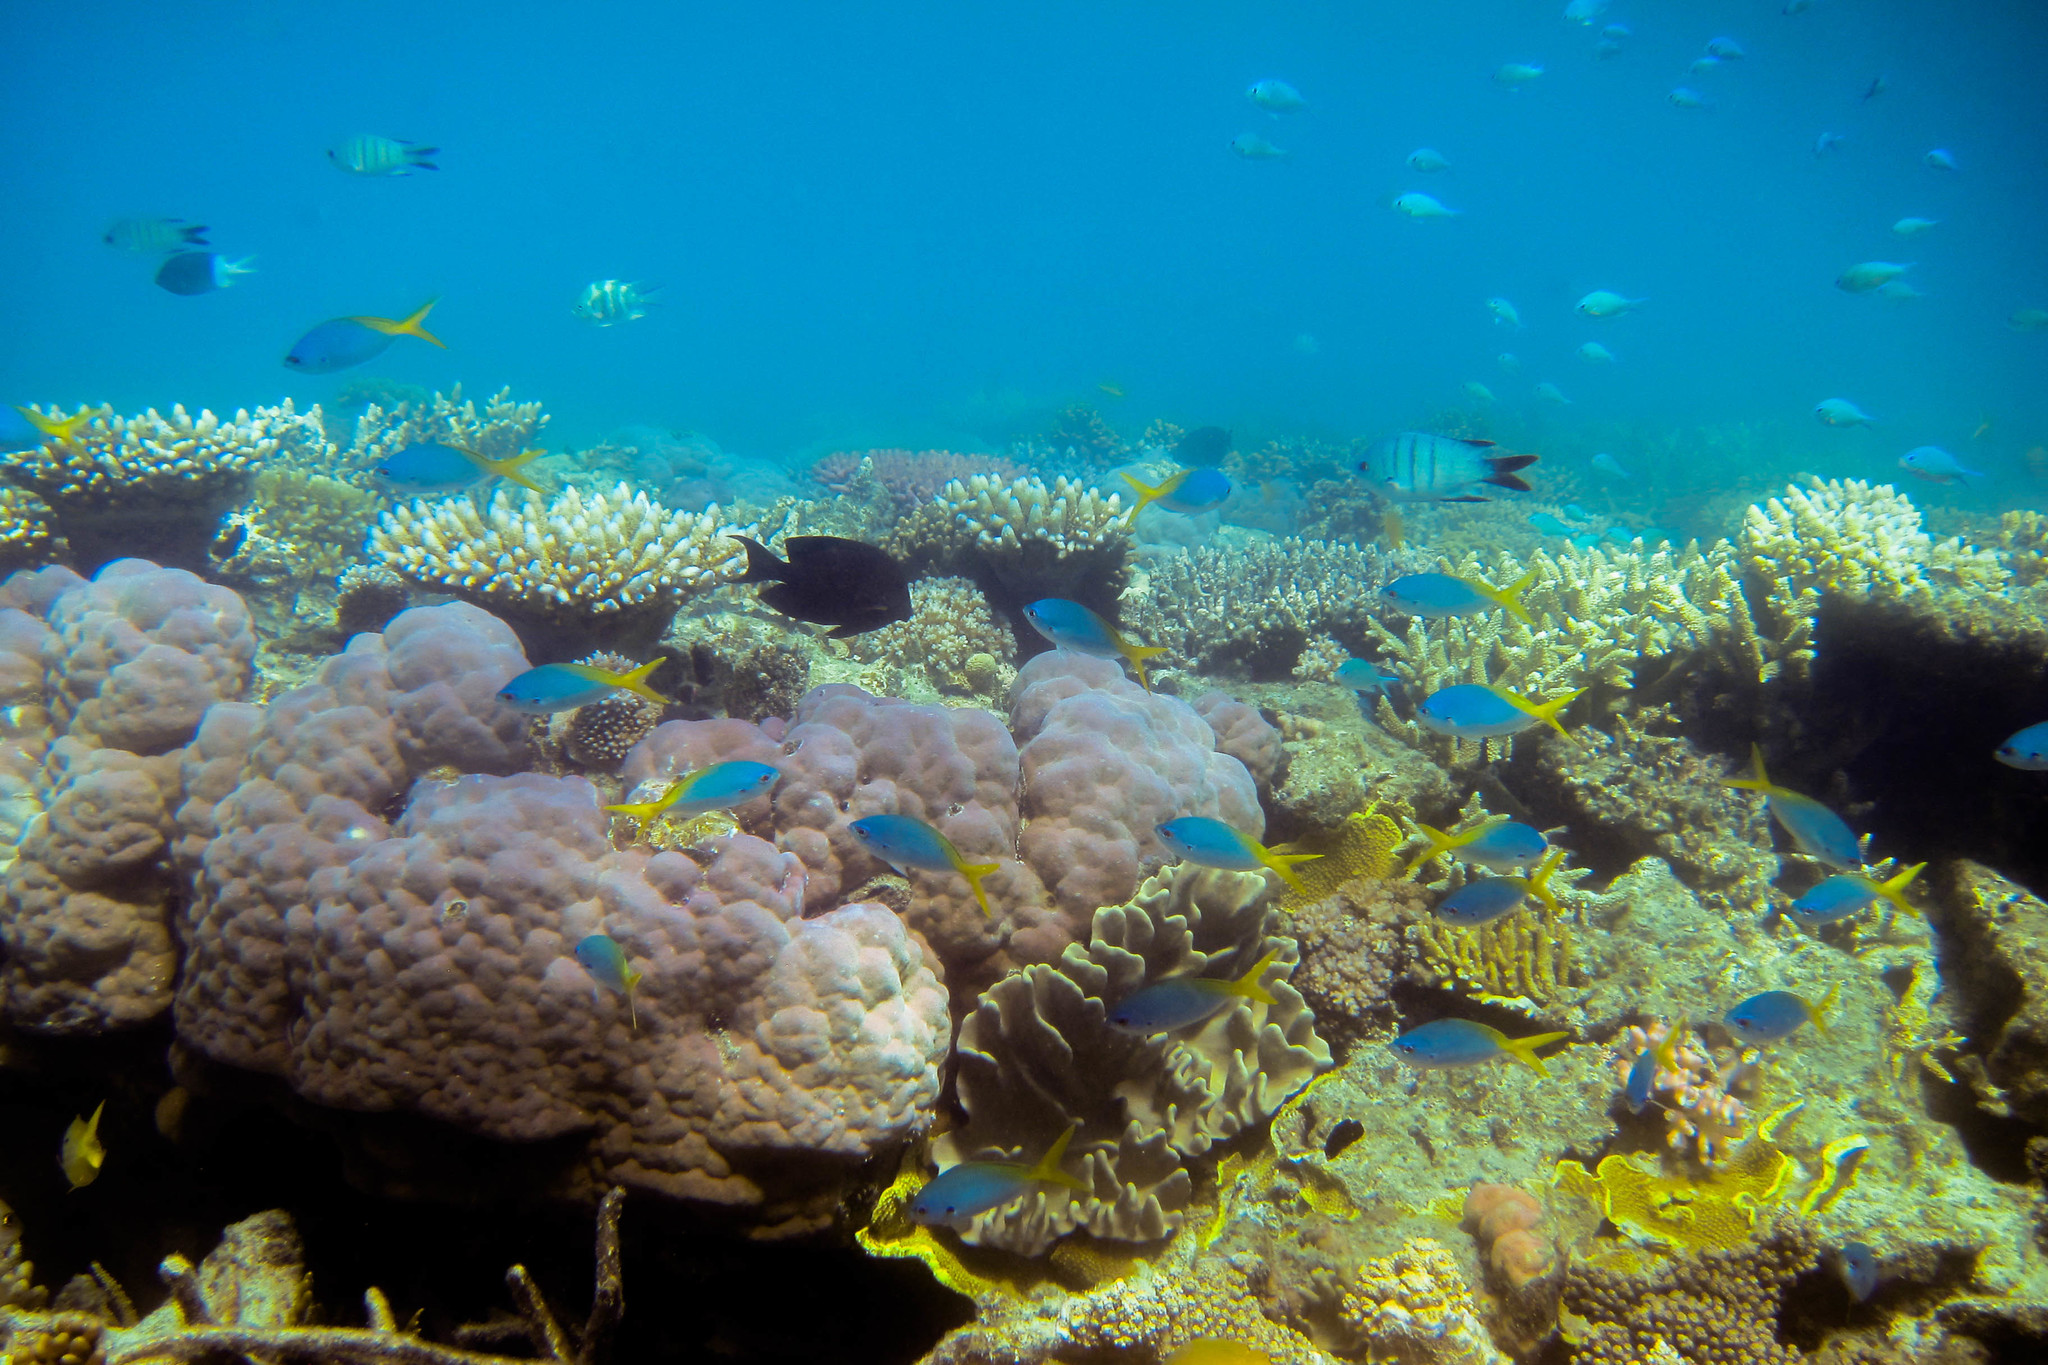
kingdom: Animalia
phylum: Chordata
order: Perciformes
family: Acanthuridae
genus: Ctenochaetus
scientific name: Ctenochaetus striatus
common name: Bristle-toothed surgeonfish
